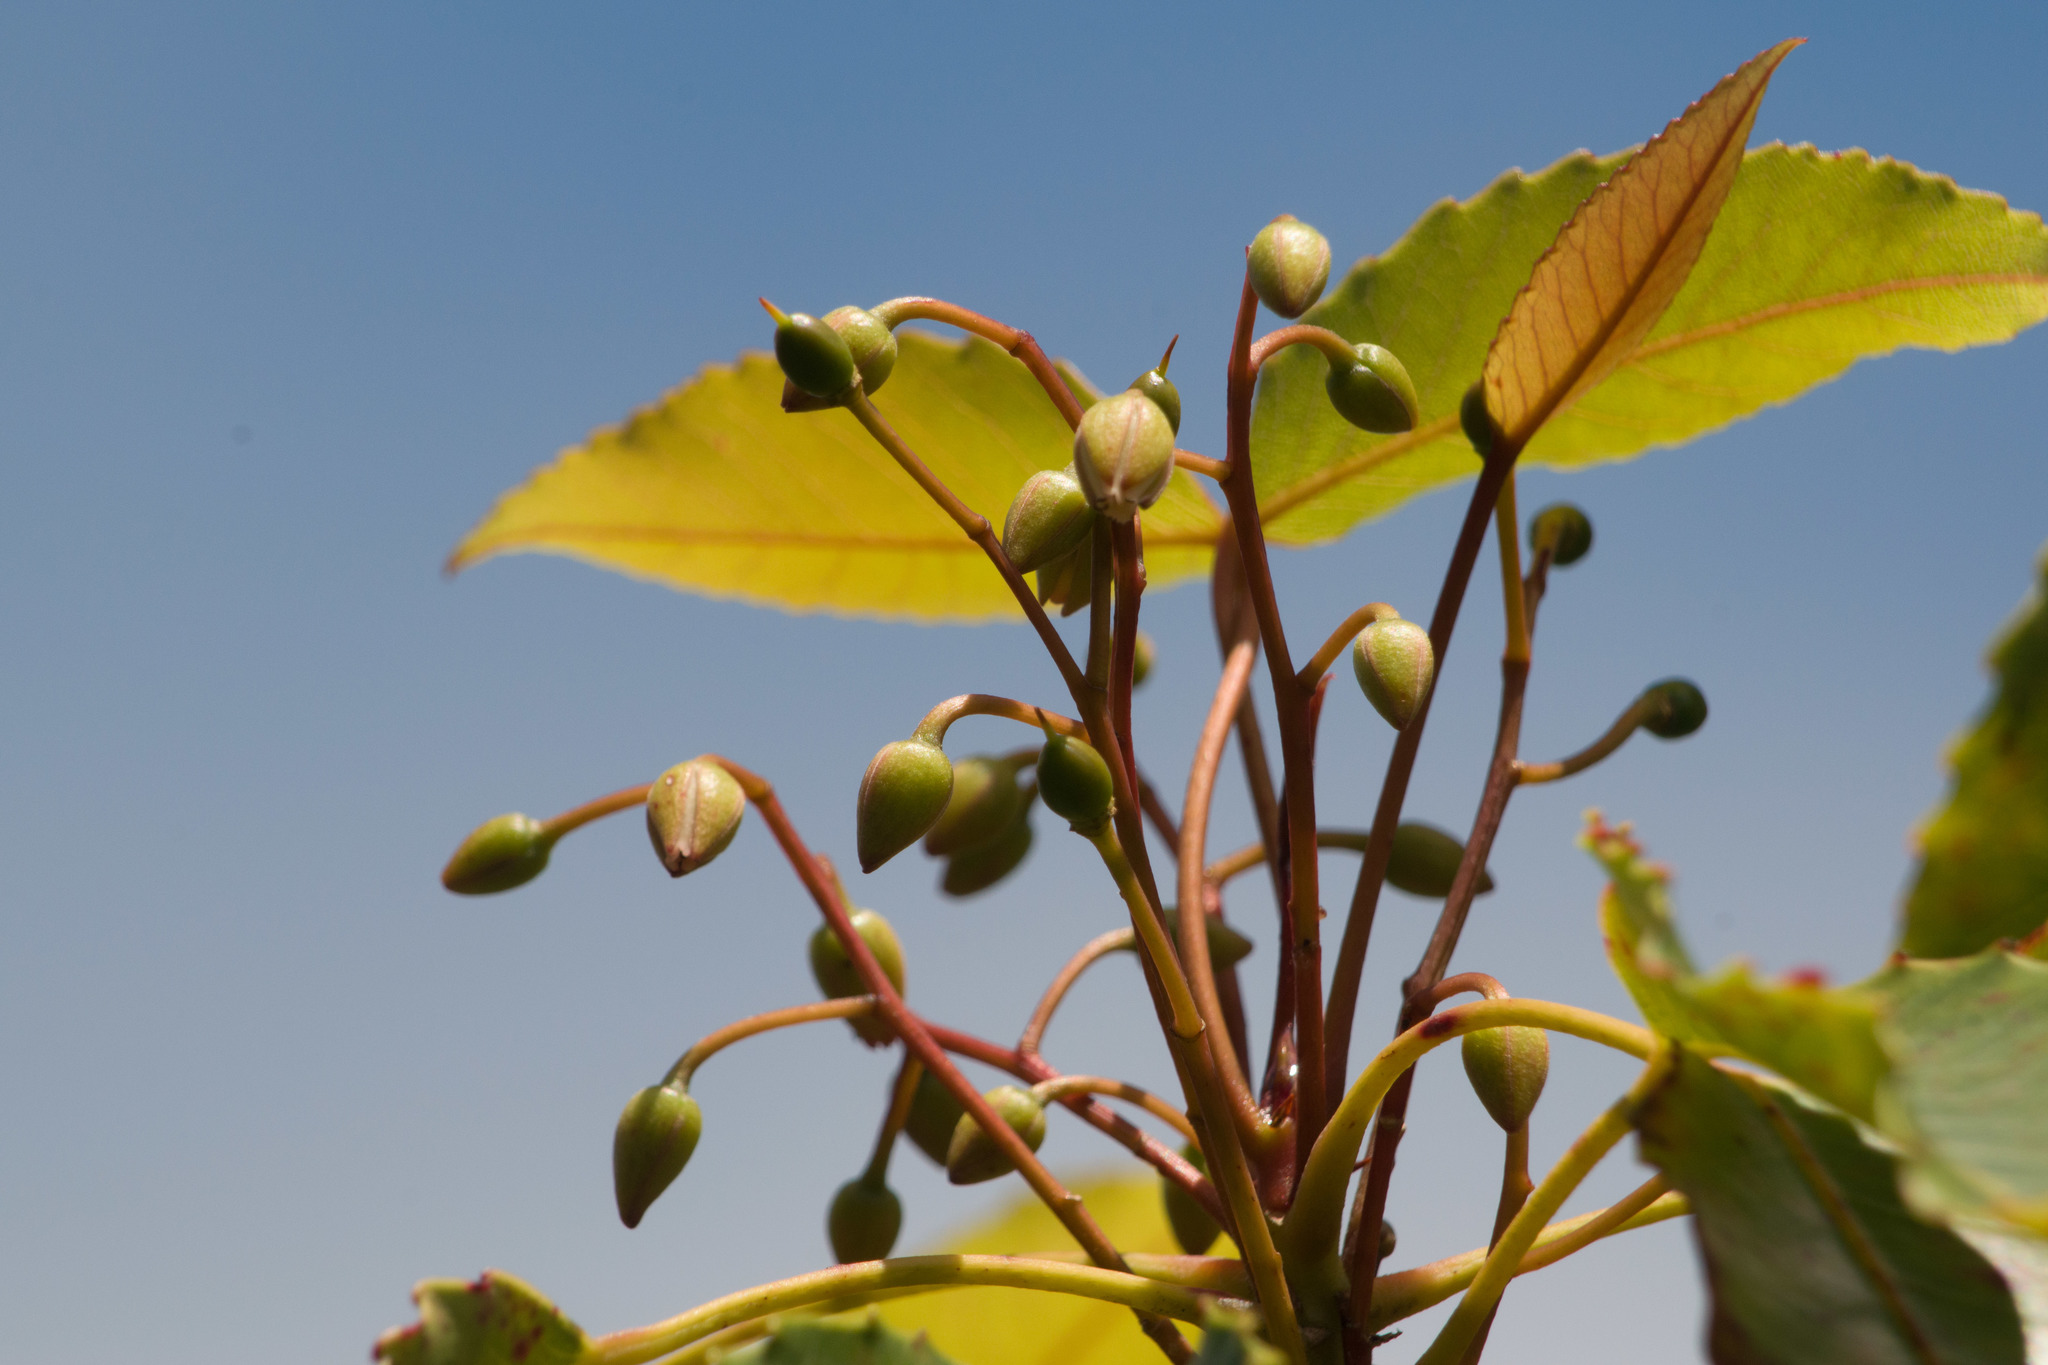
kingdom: Plantae
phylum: Tracheophyta
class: Magnoliopsida
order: Oxalidales
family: Elaeocarpaceae
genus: Elaeocarpus
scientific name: Elaeocarpus bifidus
